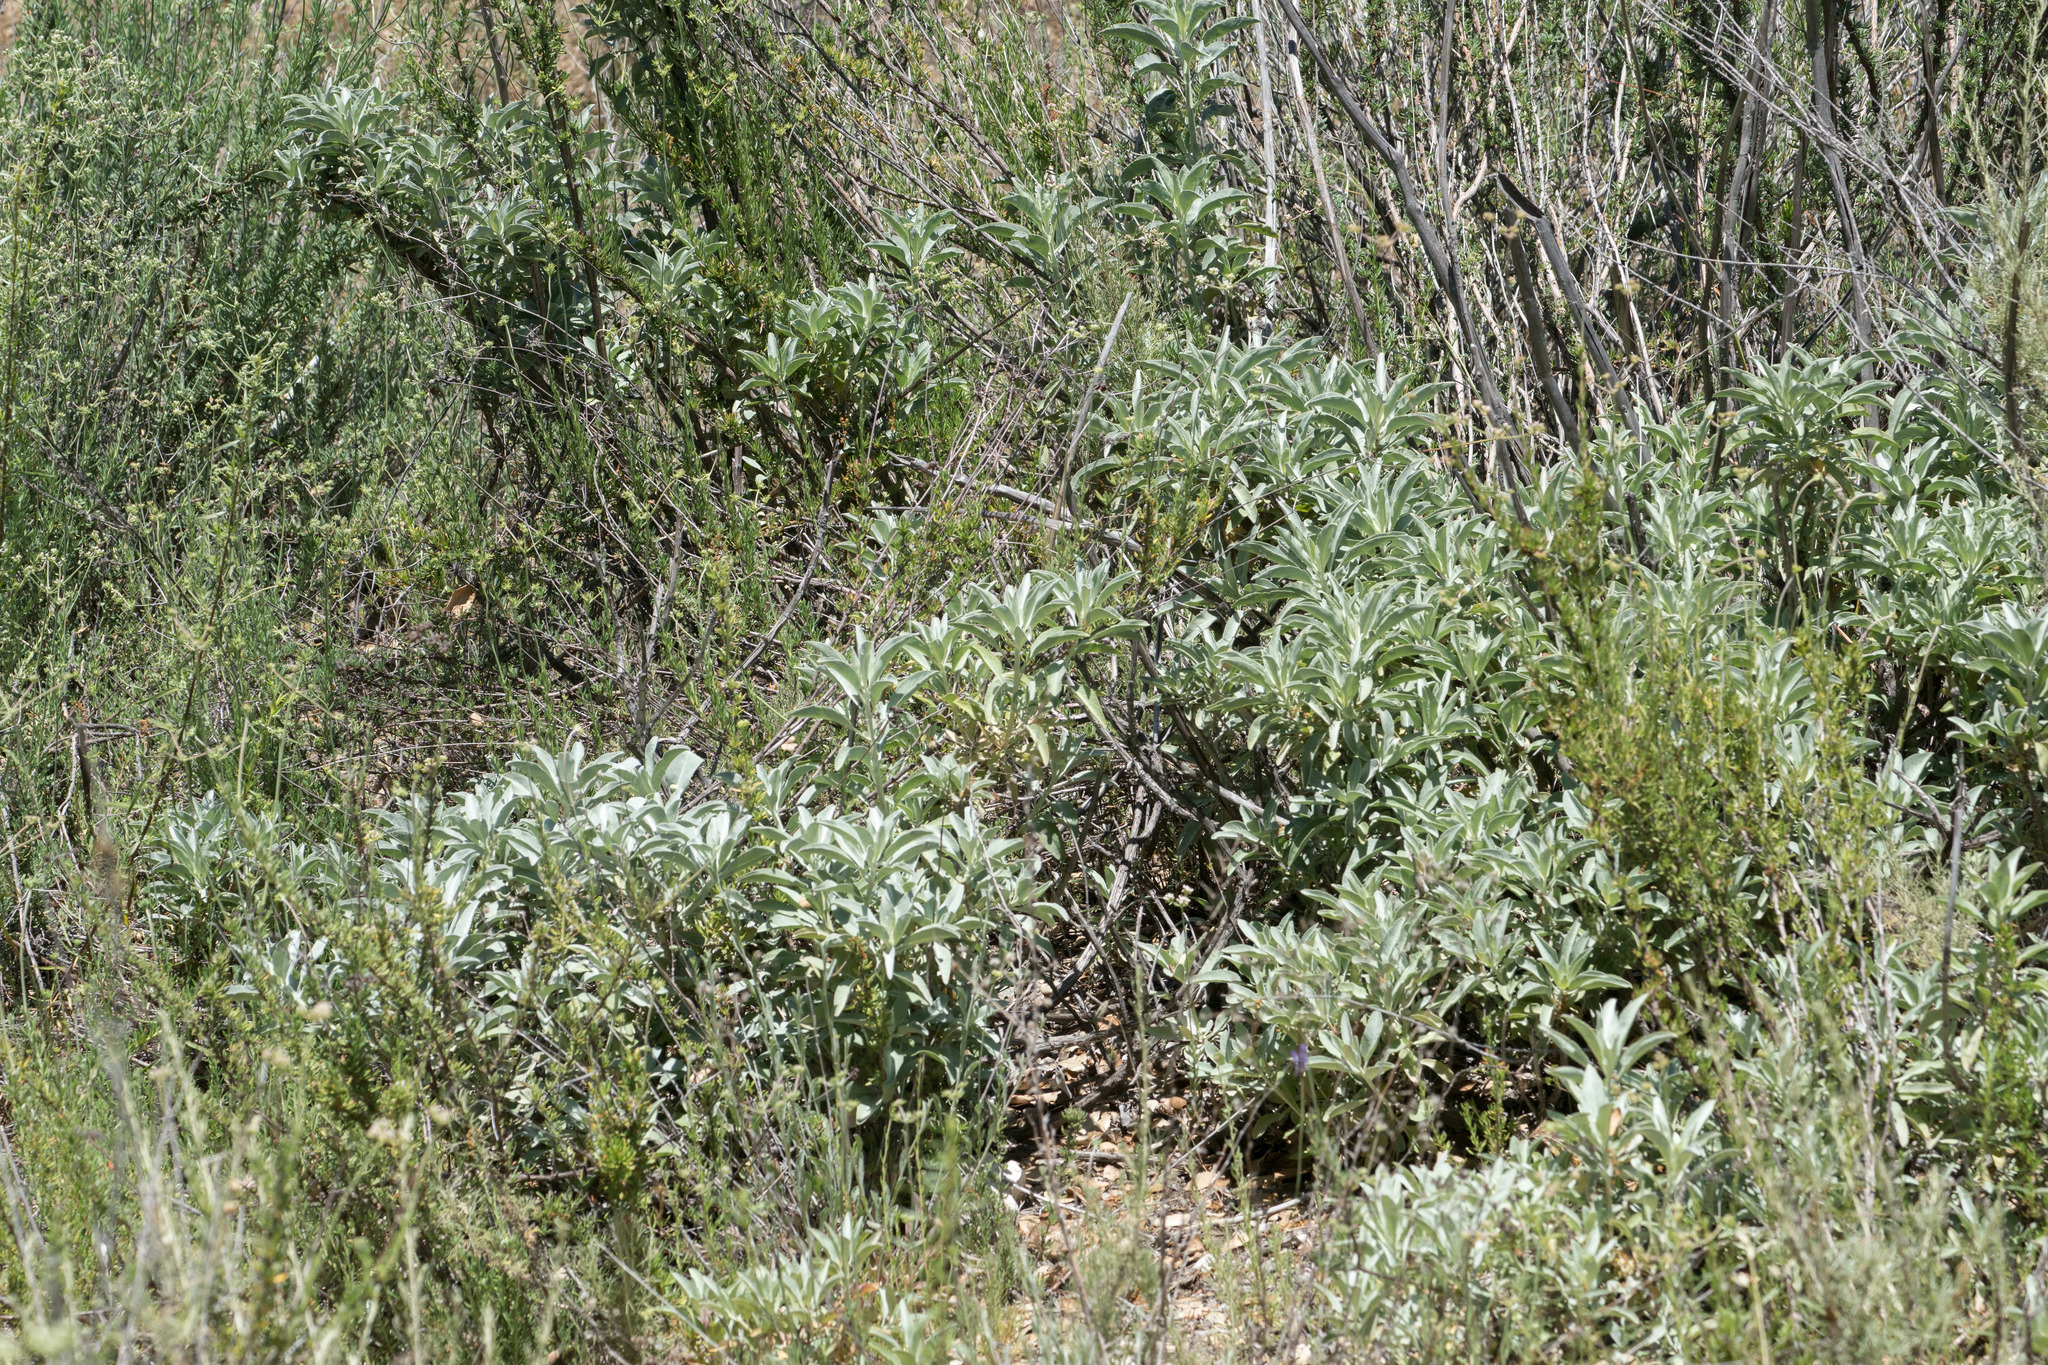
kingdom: Plantae
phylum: Tracheophyta
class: Magnoliopsida
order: Lamiales
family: Lamiaceae
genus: Salvia
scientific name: Salvia apiana
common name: White sage
